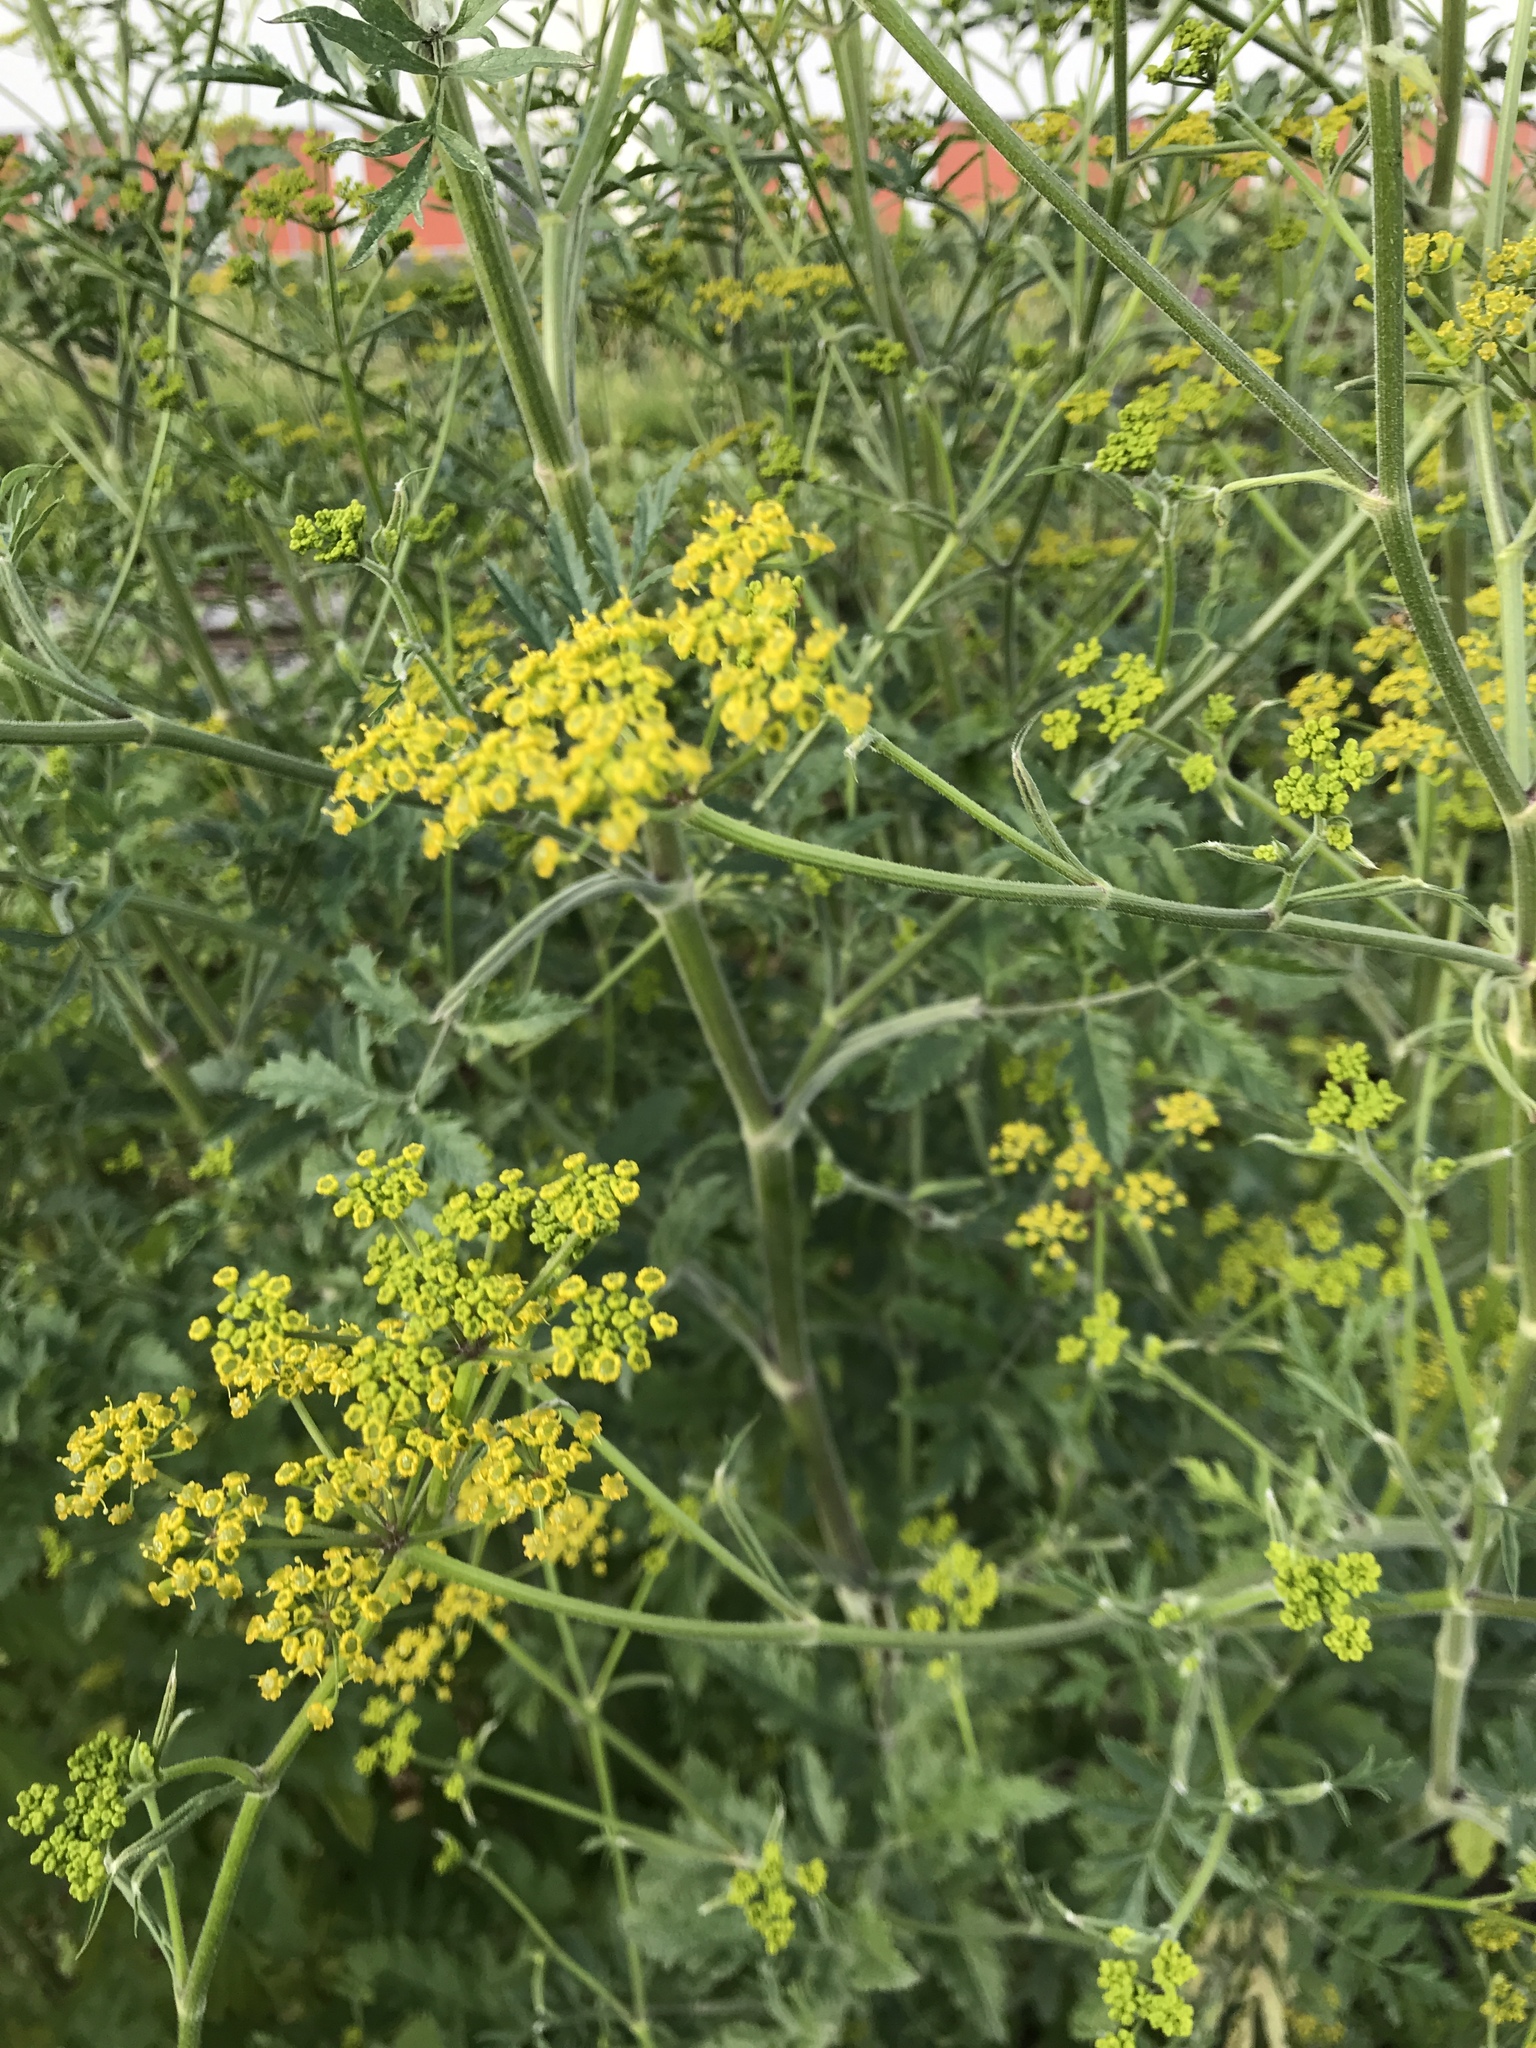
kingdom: Plantae
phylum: Tracheophyta
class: Magnoliopsida
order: Apiales
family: Apiaceae
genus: Pastinaca
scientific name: Pastinaca sativa
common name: Wild parsnip
